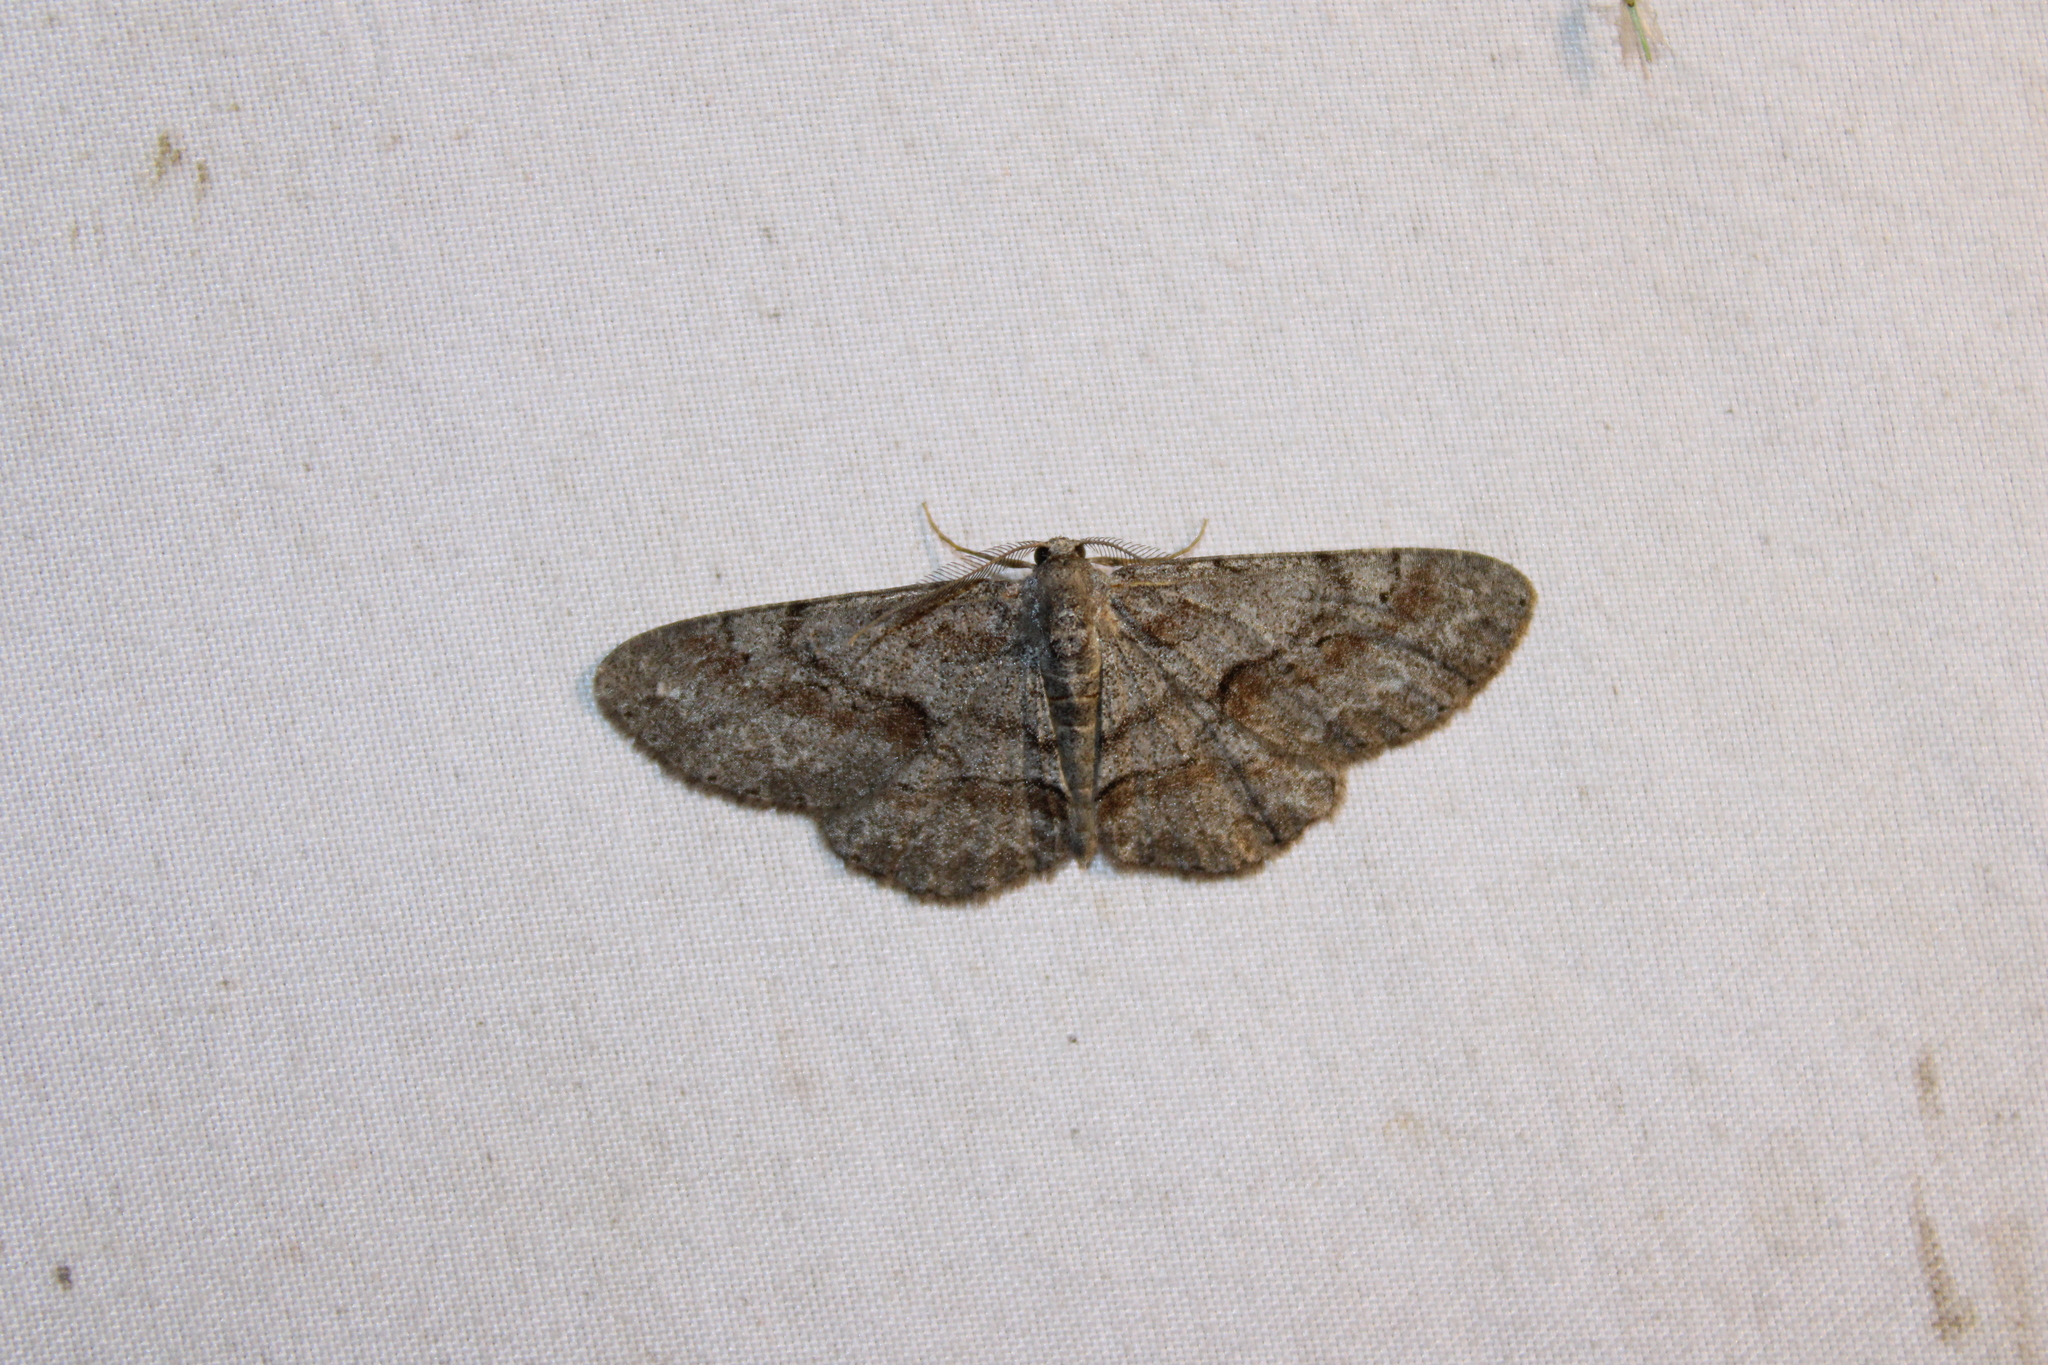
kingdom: Animalia
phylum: Arthropoda
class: Insecta
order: Lepidoptera
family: Geometridae
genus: Iridopsis
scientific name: Iridopsis vellivolata
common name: Large purplish gray
